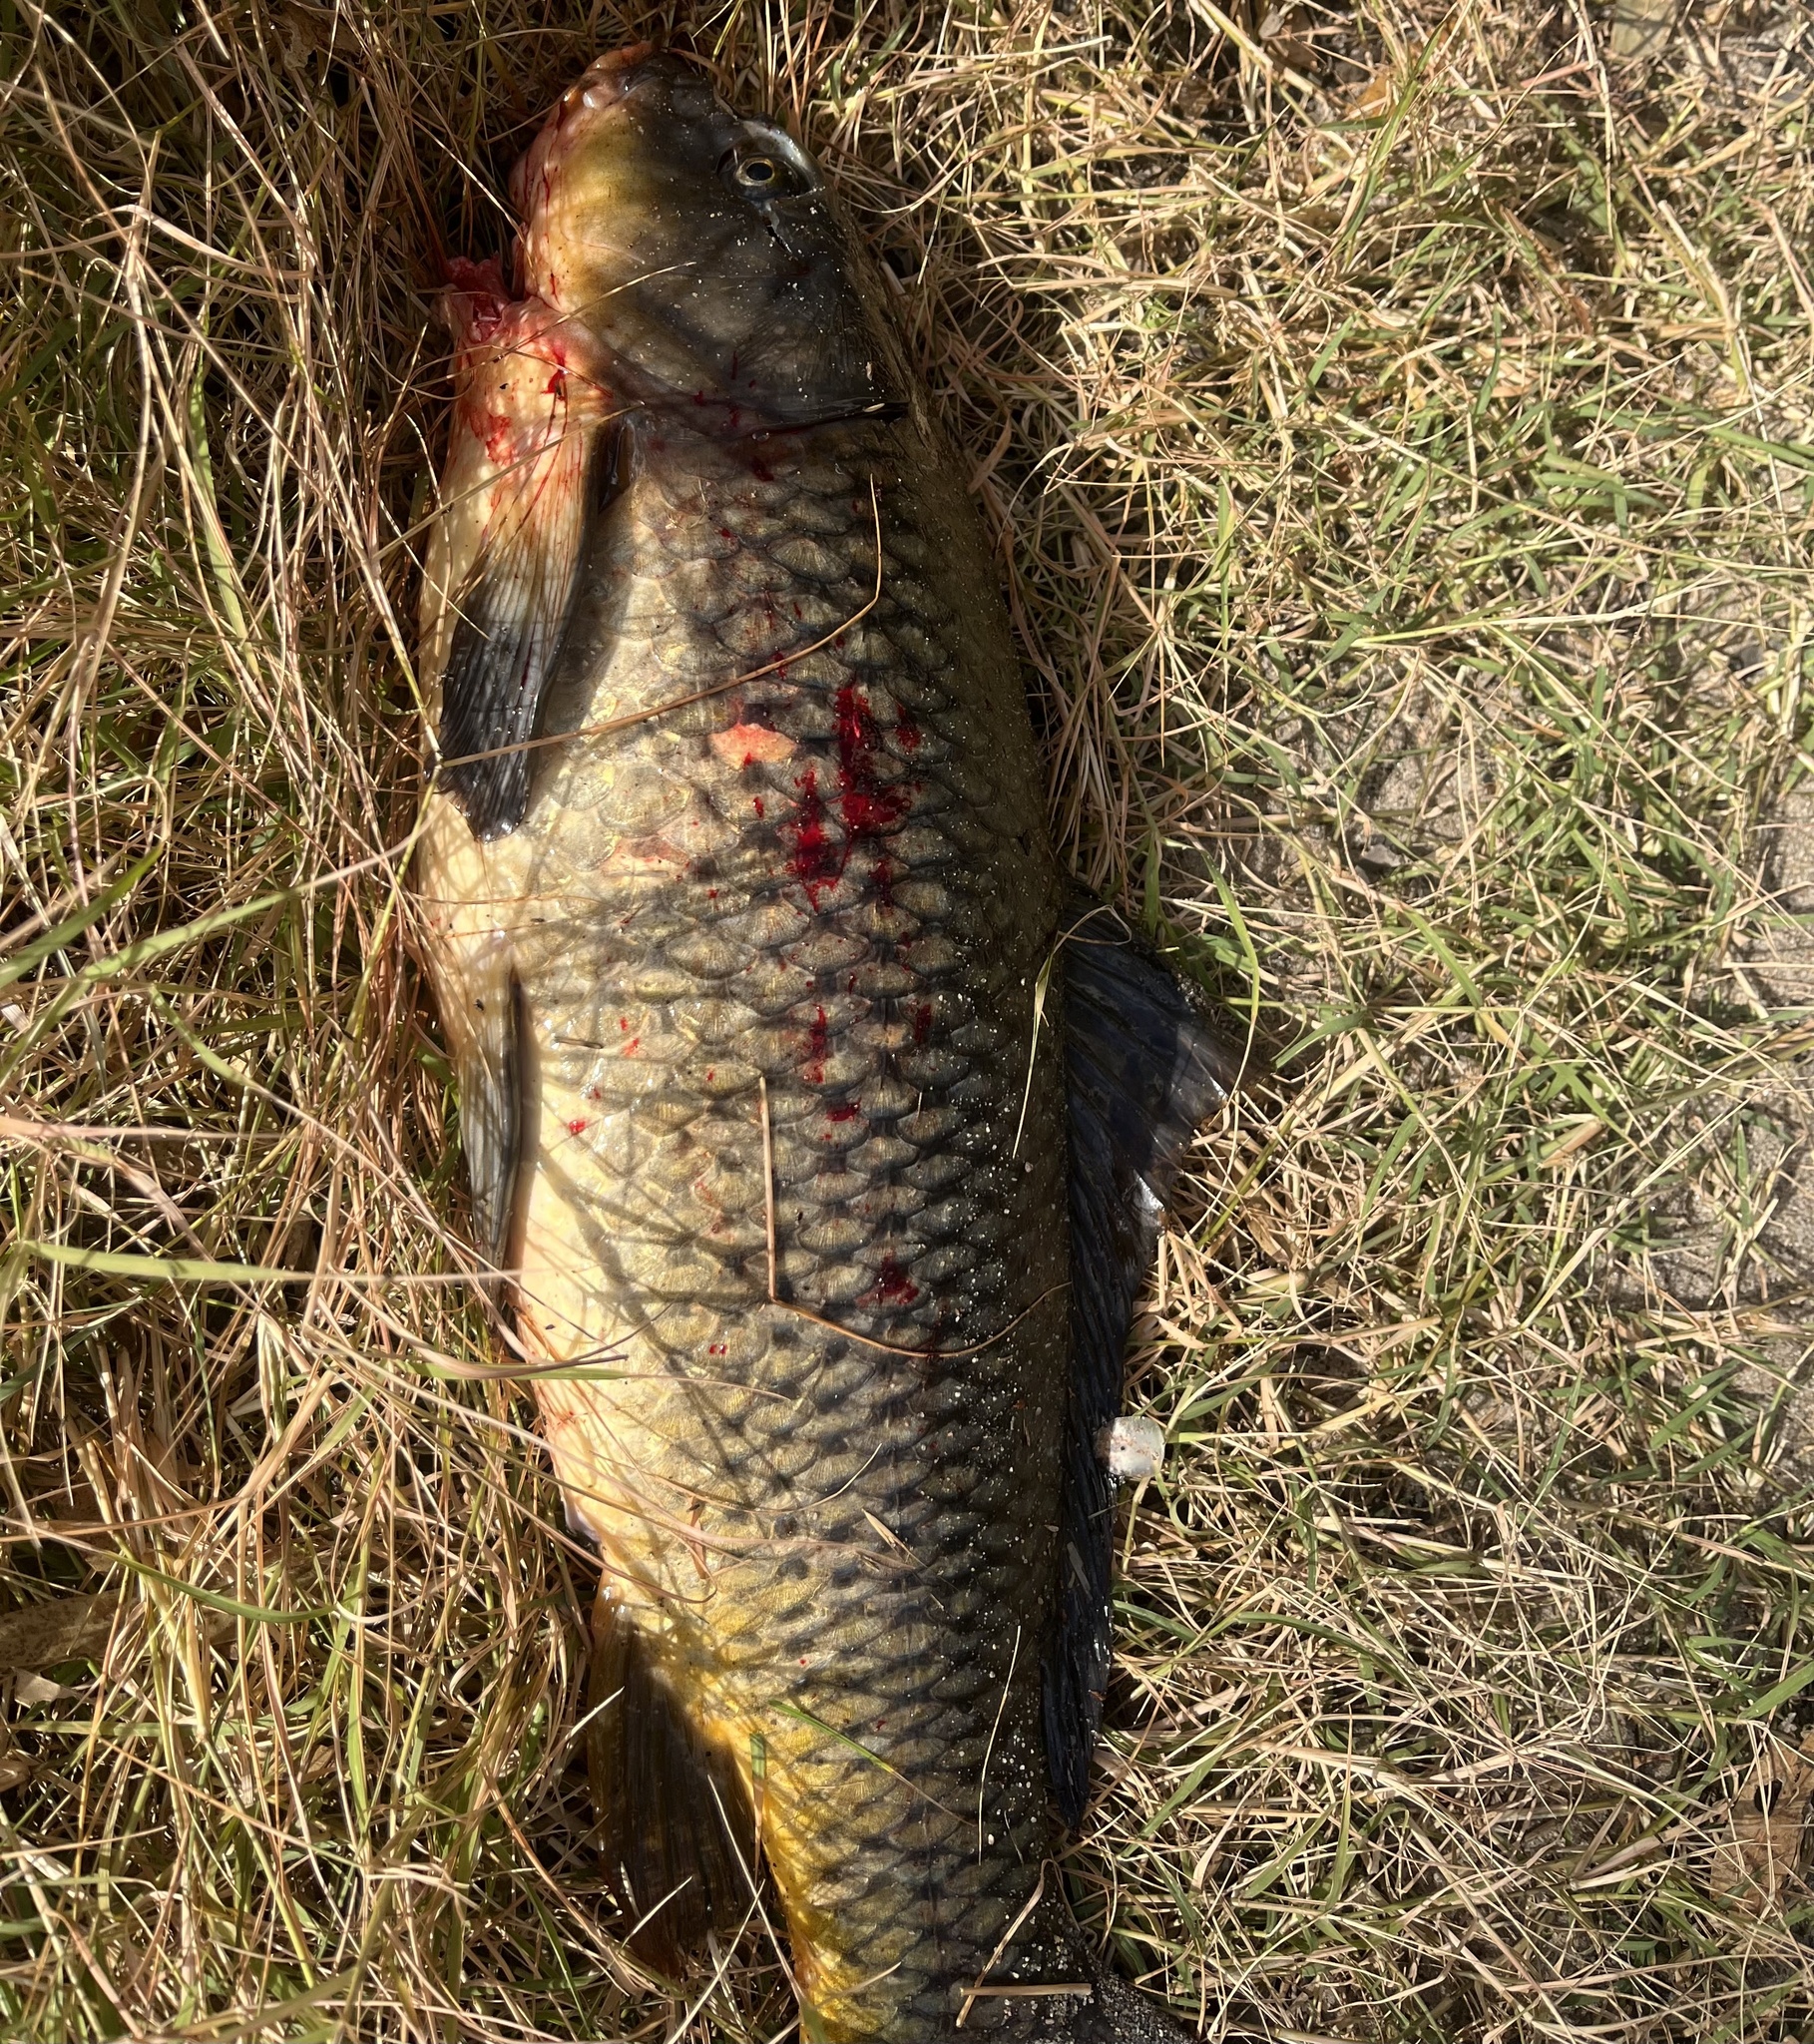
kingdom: Animalia
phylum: Chordata
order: Cypriniformes
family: Cyprinidae
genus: Cyprinus
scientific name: Cyprinus carpio
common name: Common carp
